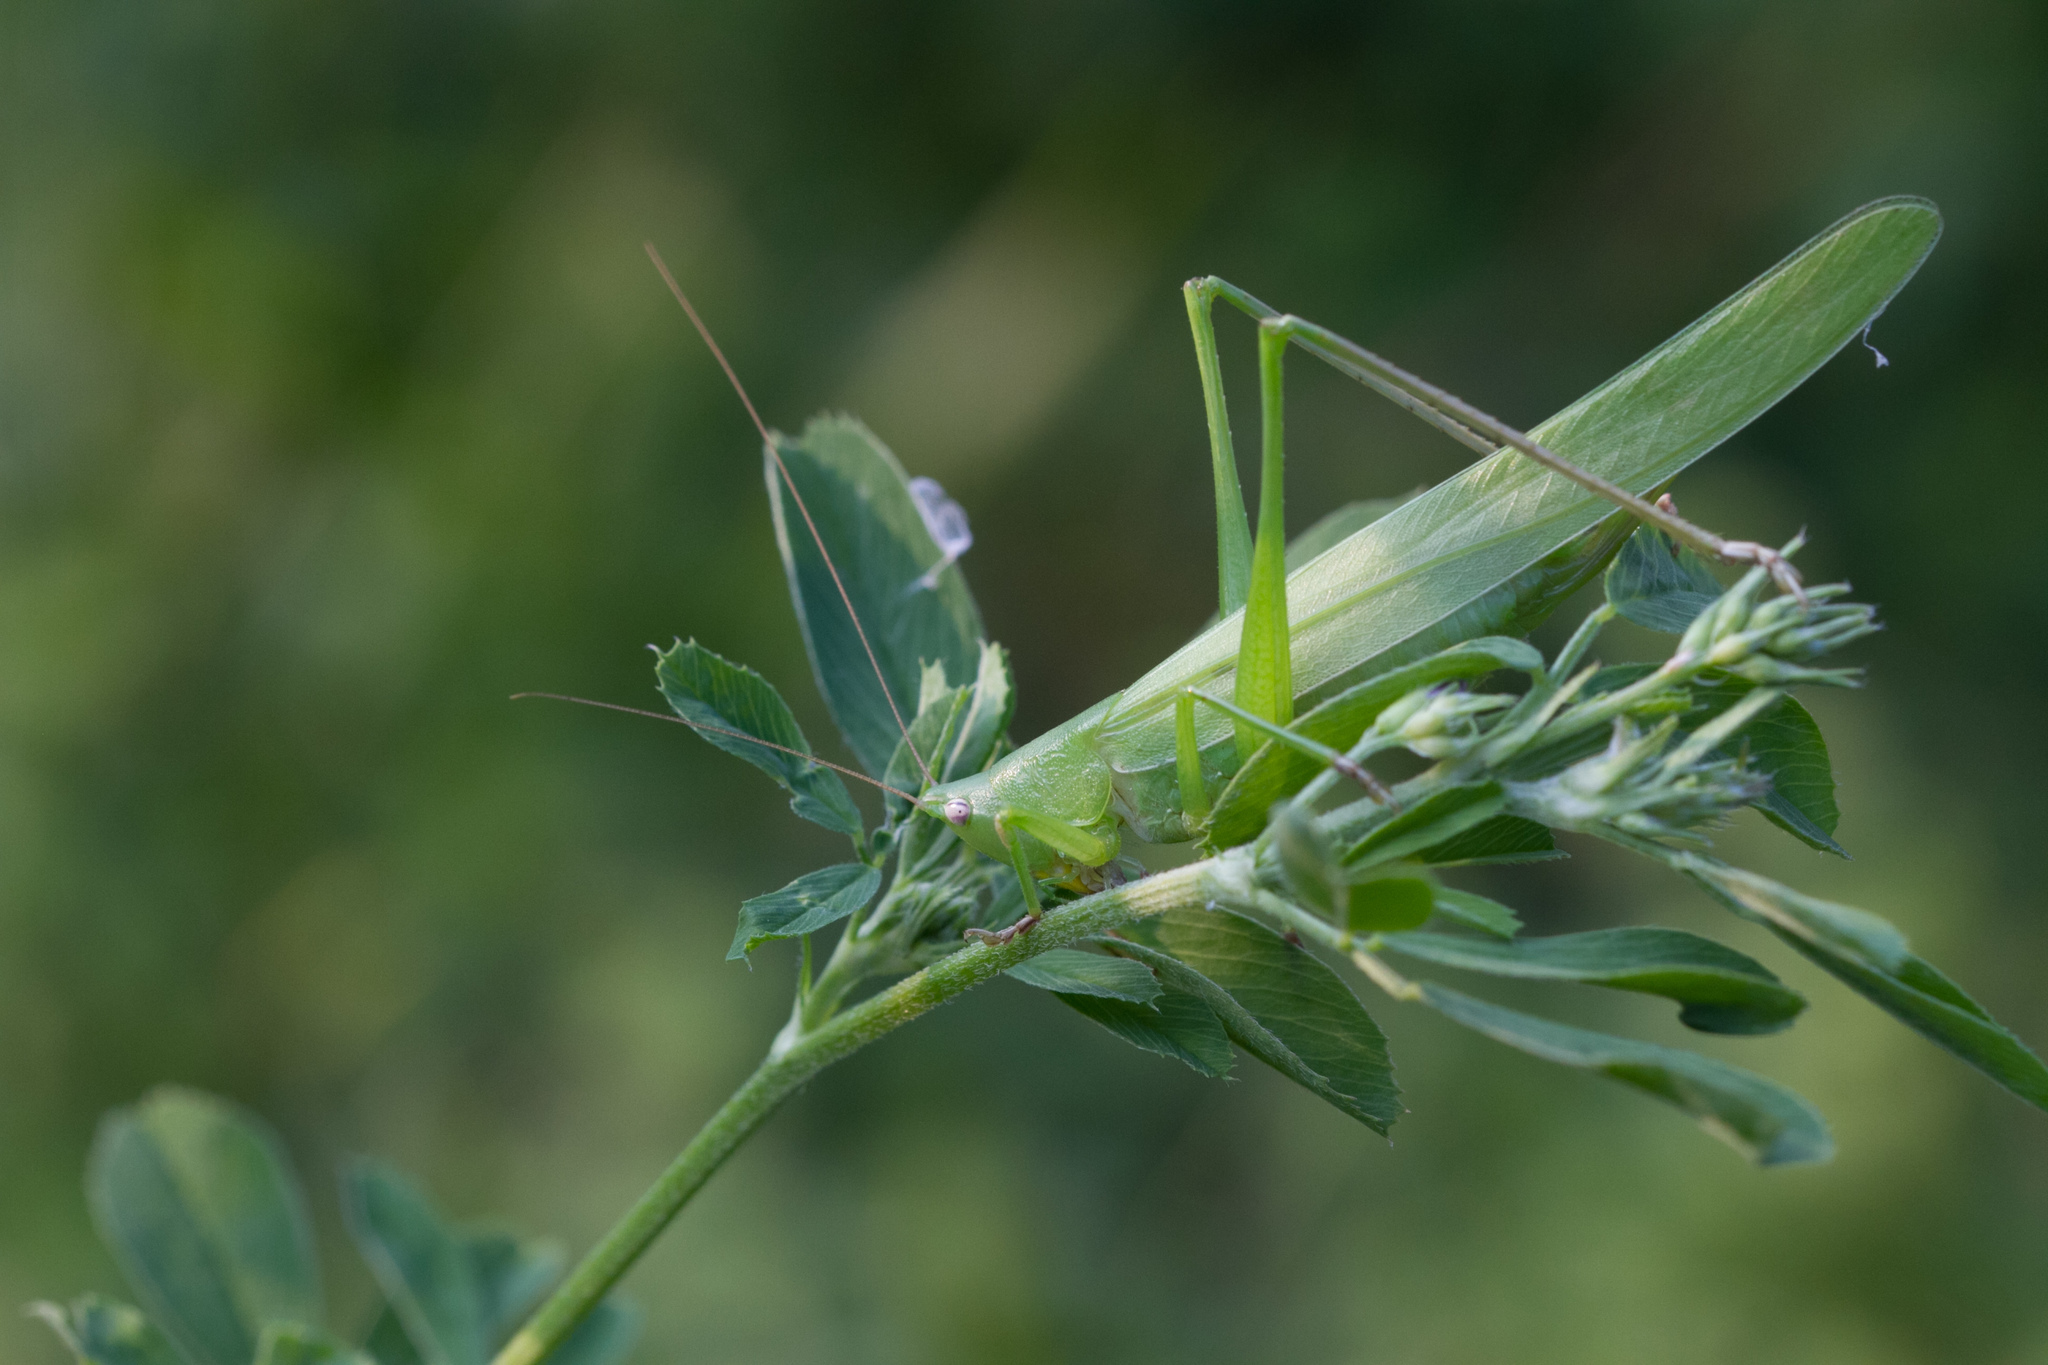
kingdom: Animalia
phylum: Arthropoda
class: Insecta
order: Orthoptera
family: Tettigoniidae
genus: Ruspolia
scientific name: Ruspolia nitidula
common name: Large conehead
